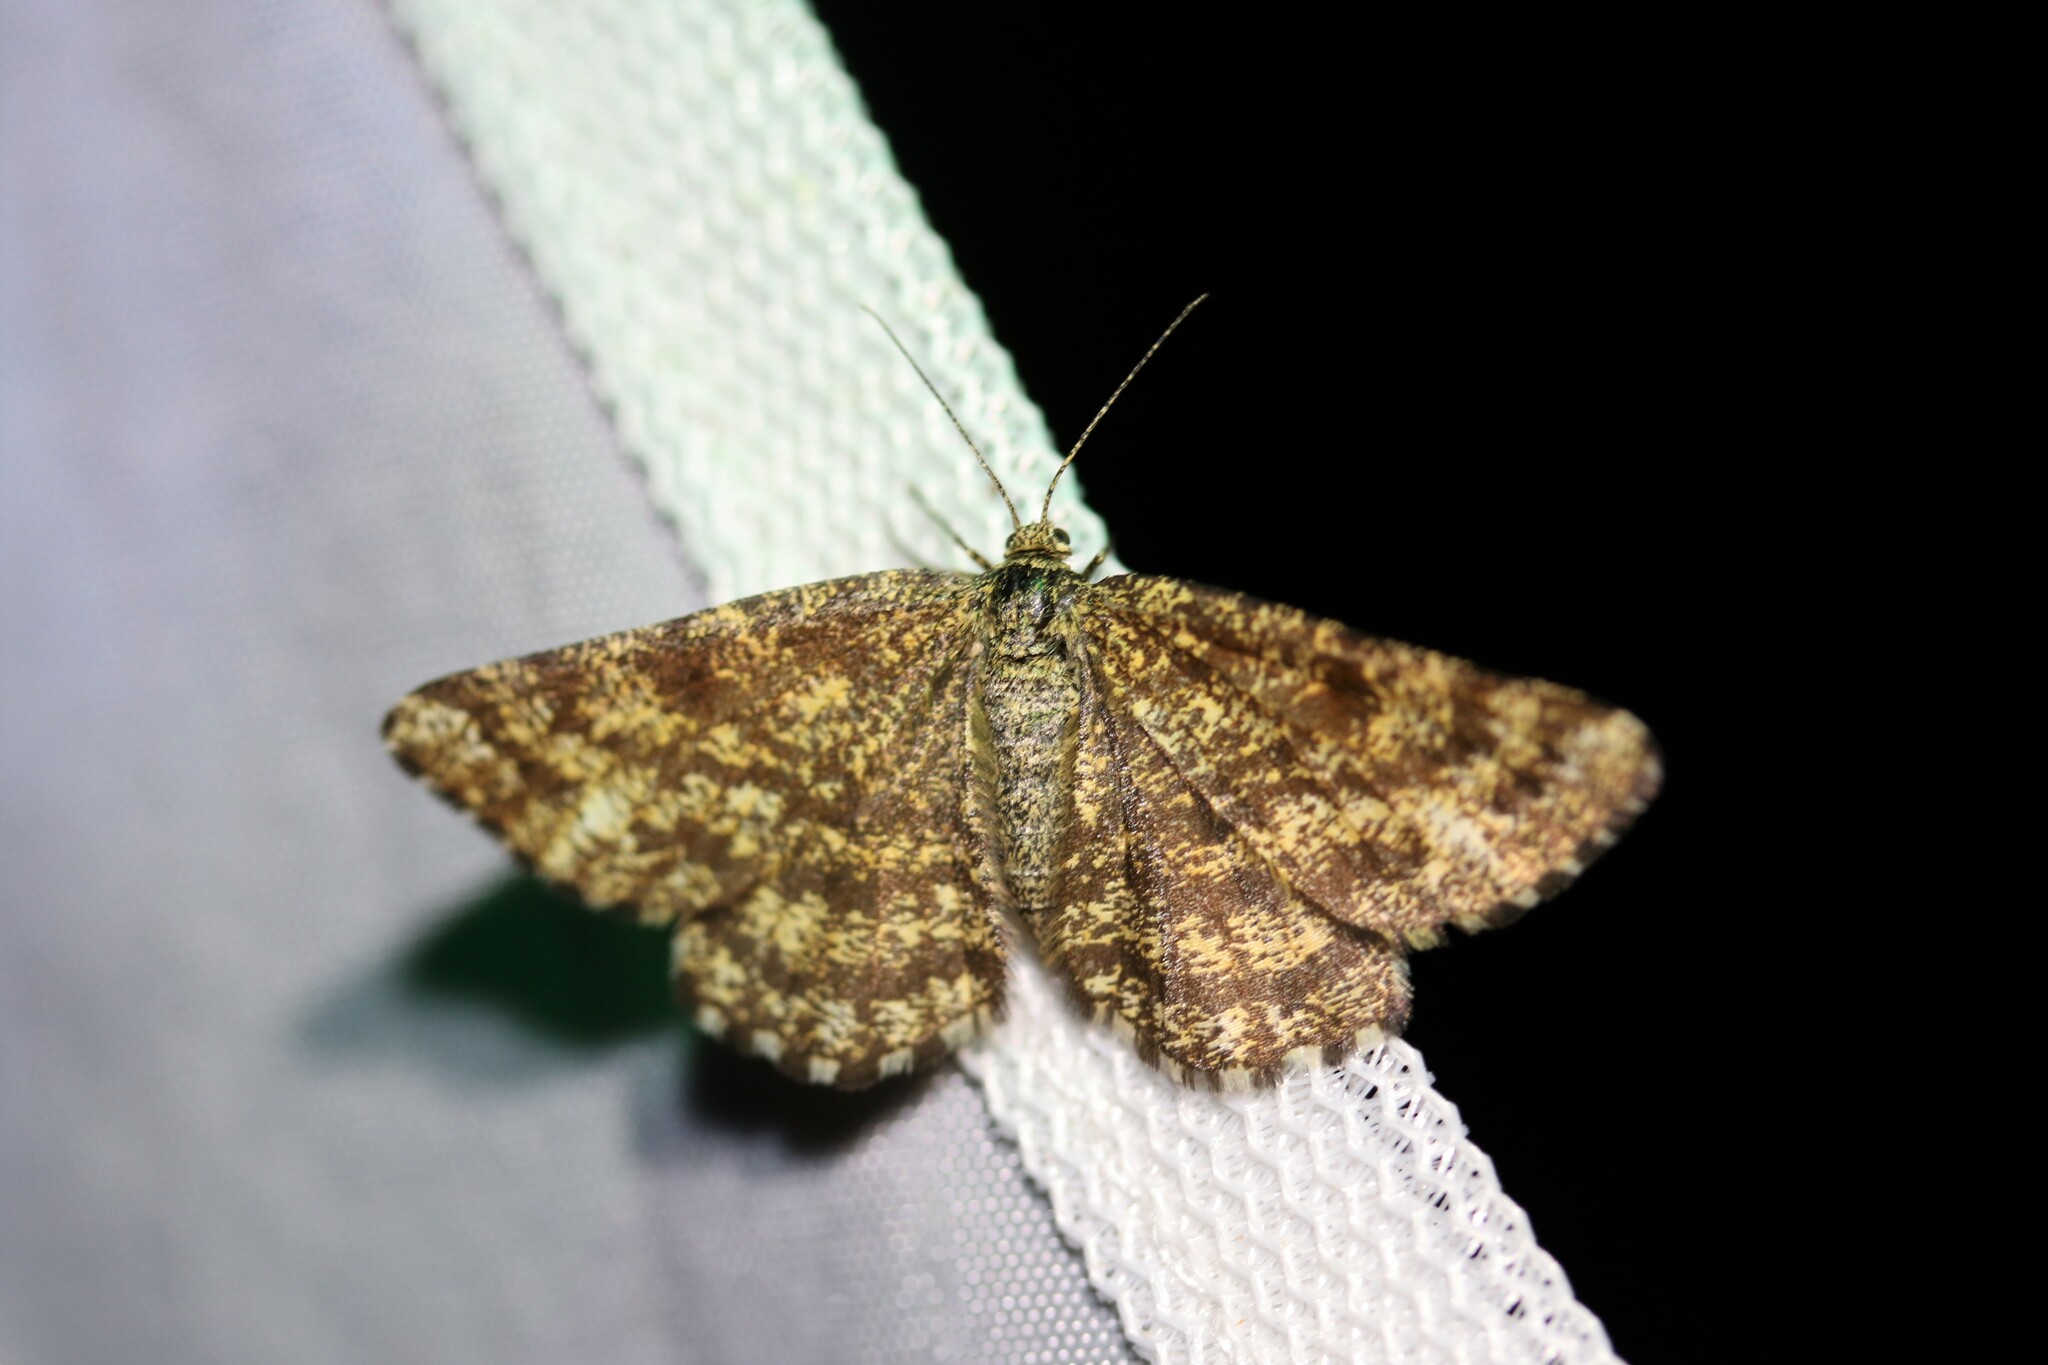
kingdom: Animalia
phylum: Arthropoda
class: Insecta
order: Lepidoptera
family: Geometridae
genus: Ematurga
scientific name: Ematurga atomaria
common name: Common heath
